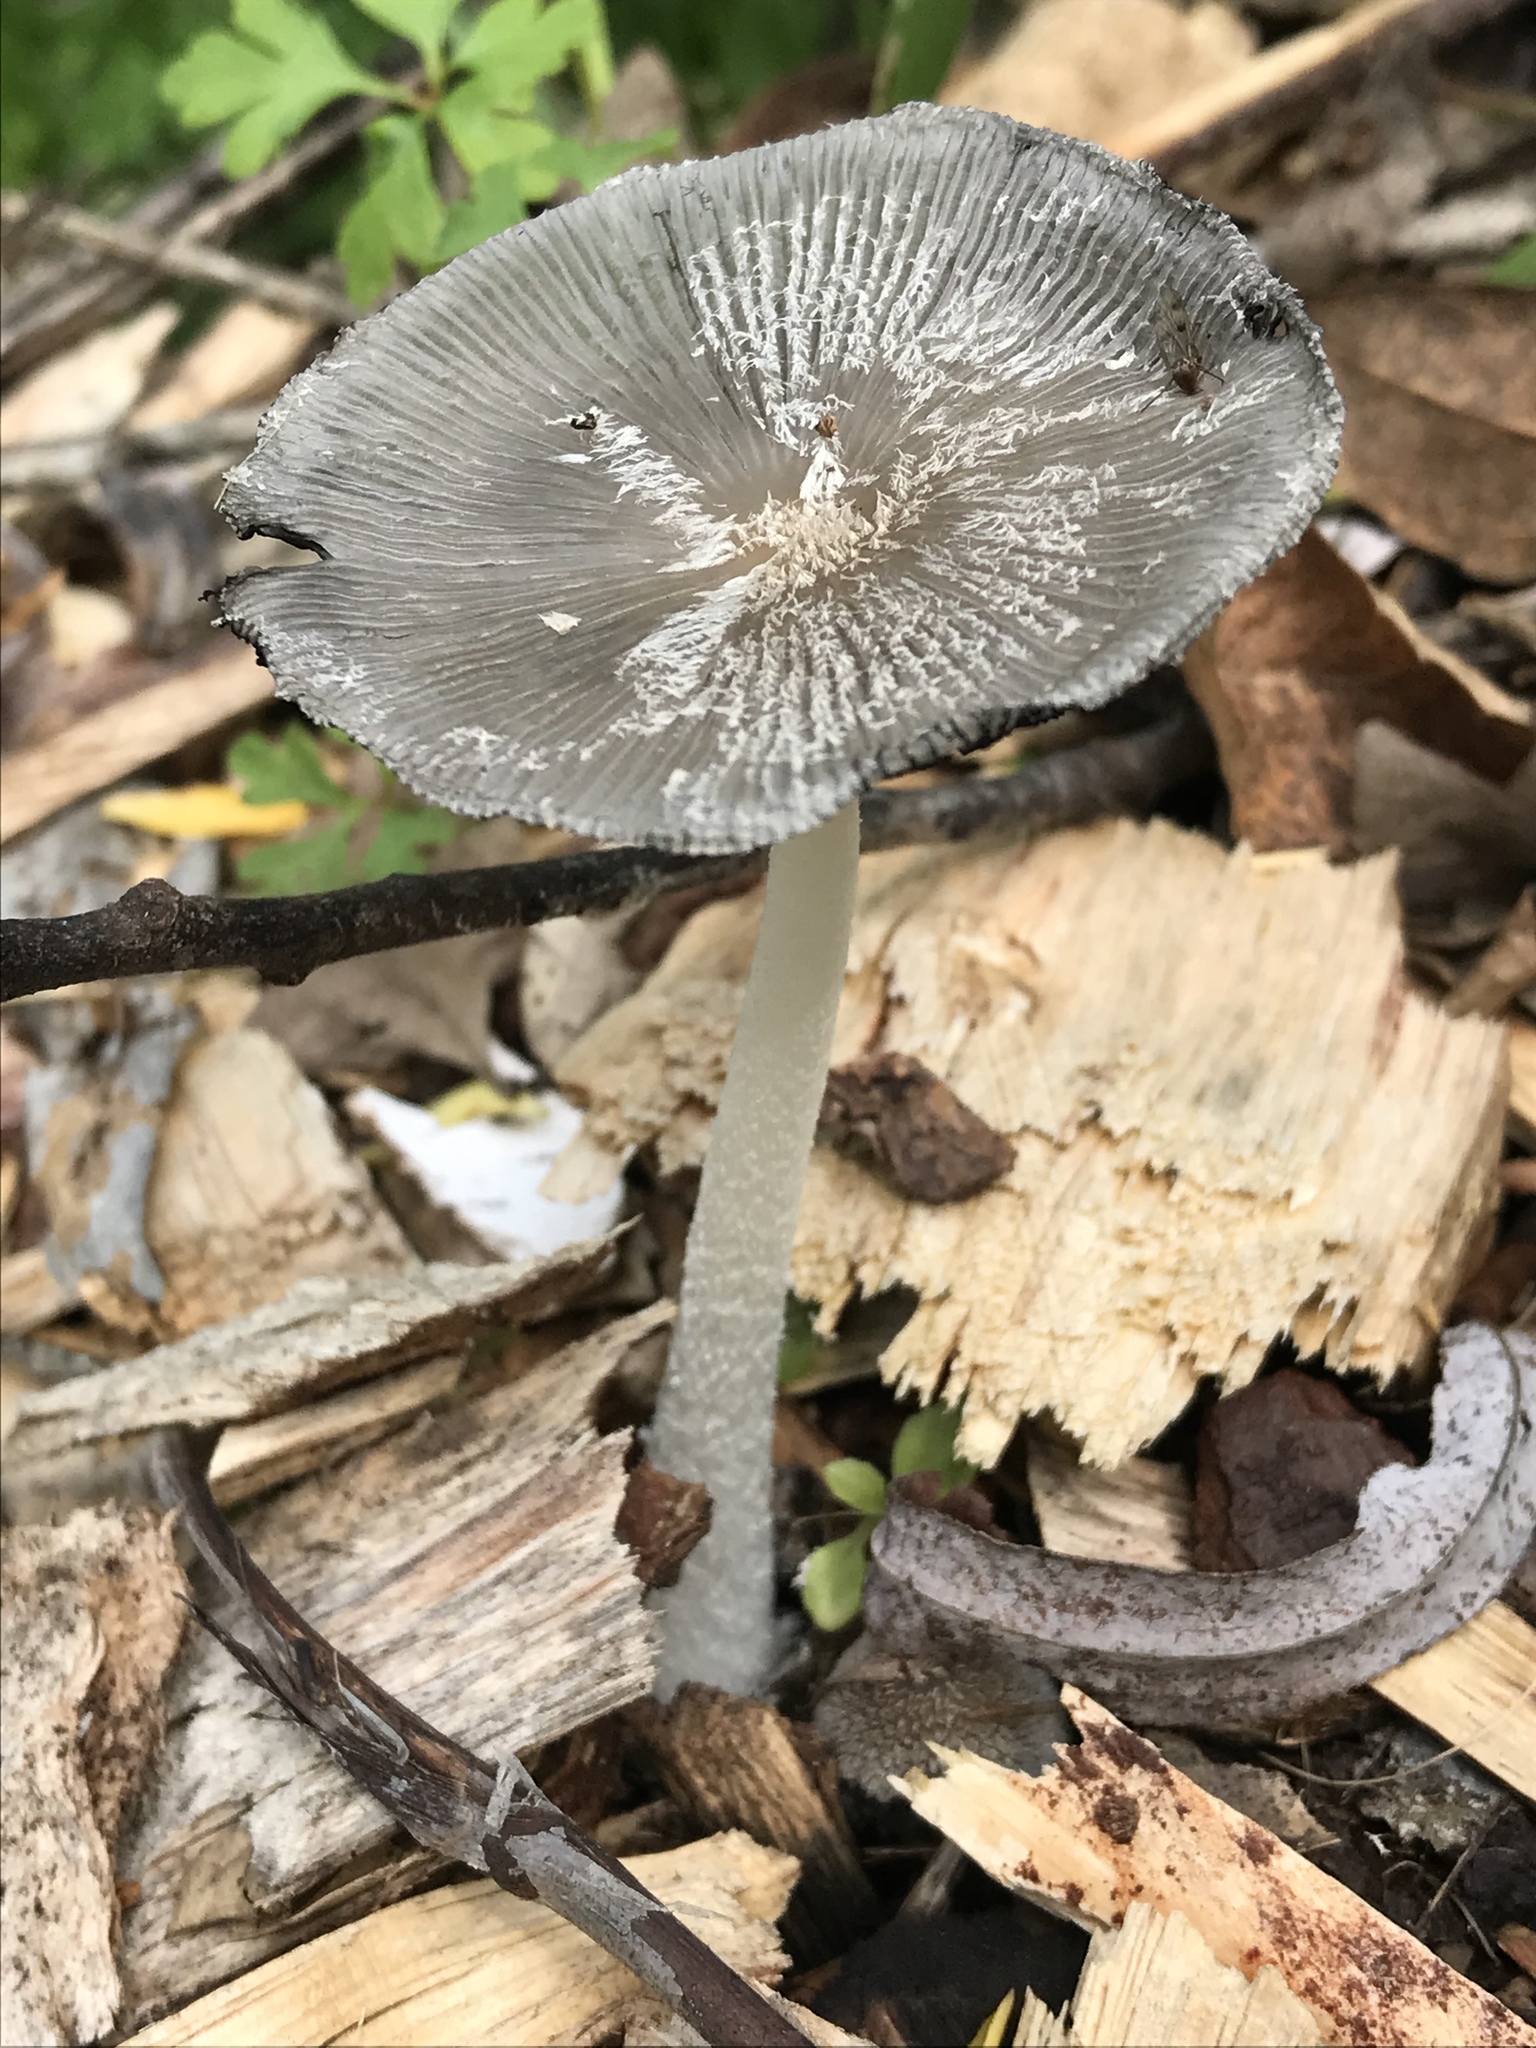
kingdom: Fungi
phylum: Basidiomycota
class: Agaricomycetes
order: Agaricales
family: Psathyrellaceae
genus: Coprinopsis
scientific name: Coprinopsis lagopus
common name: Hare'sfoot inkcap
